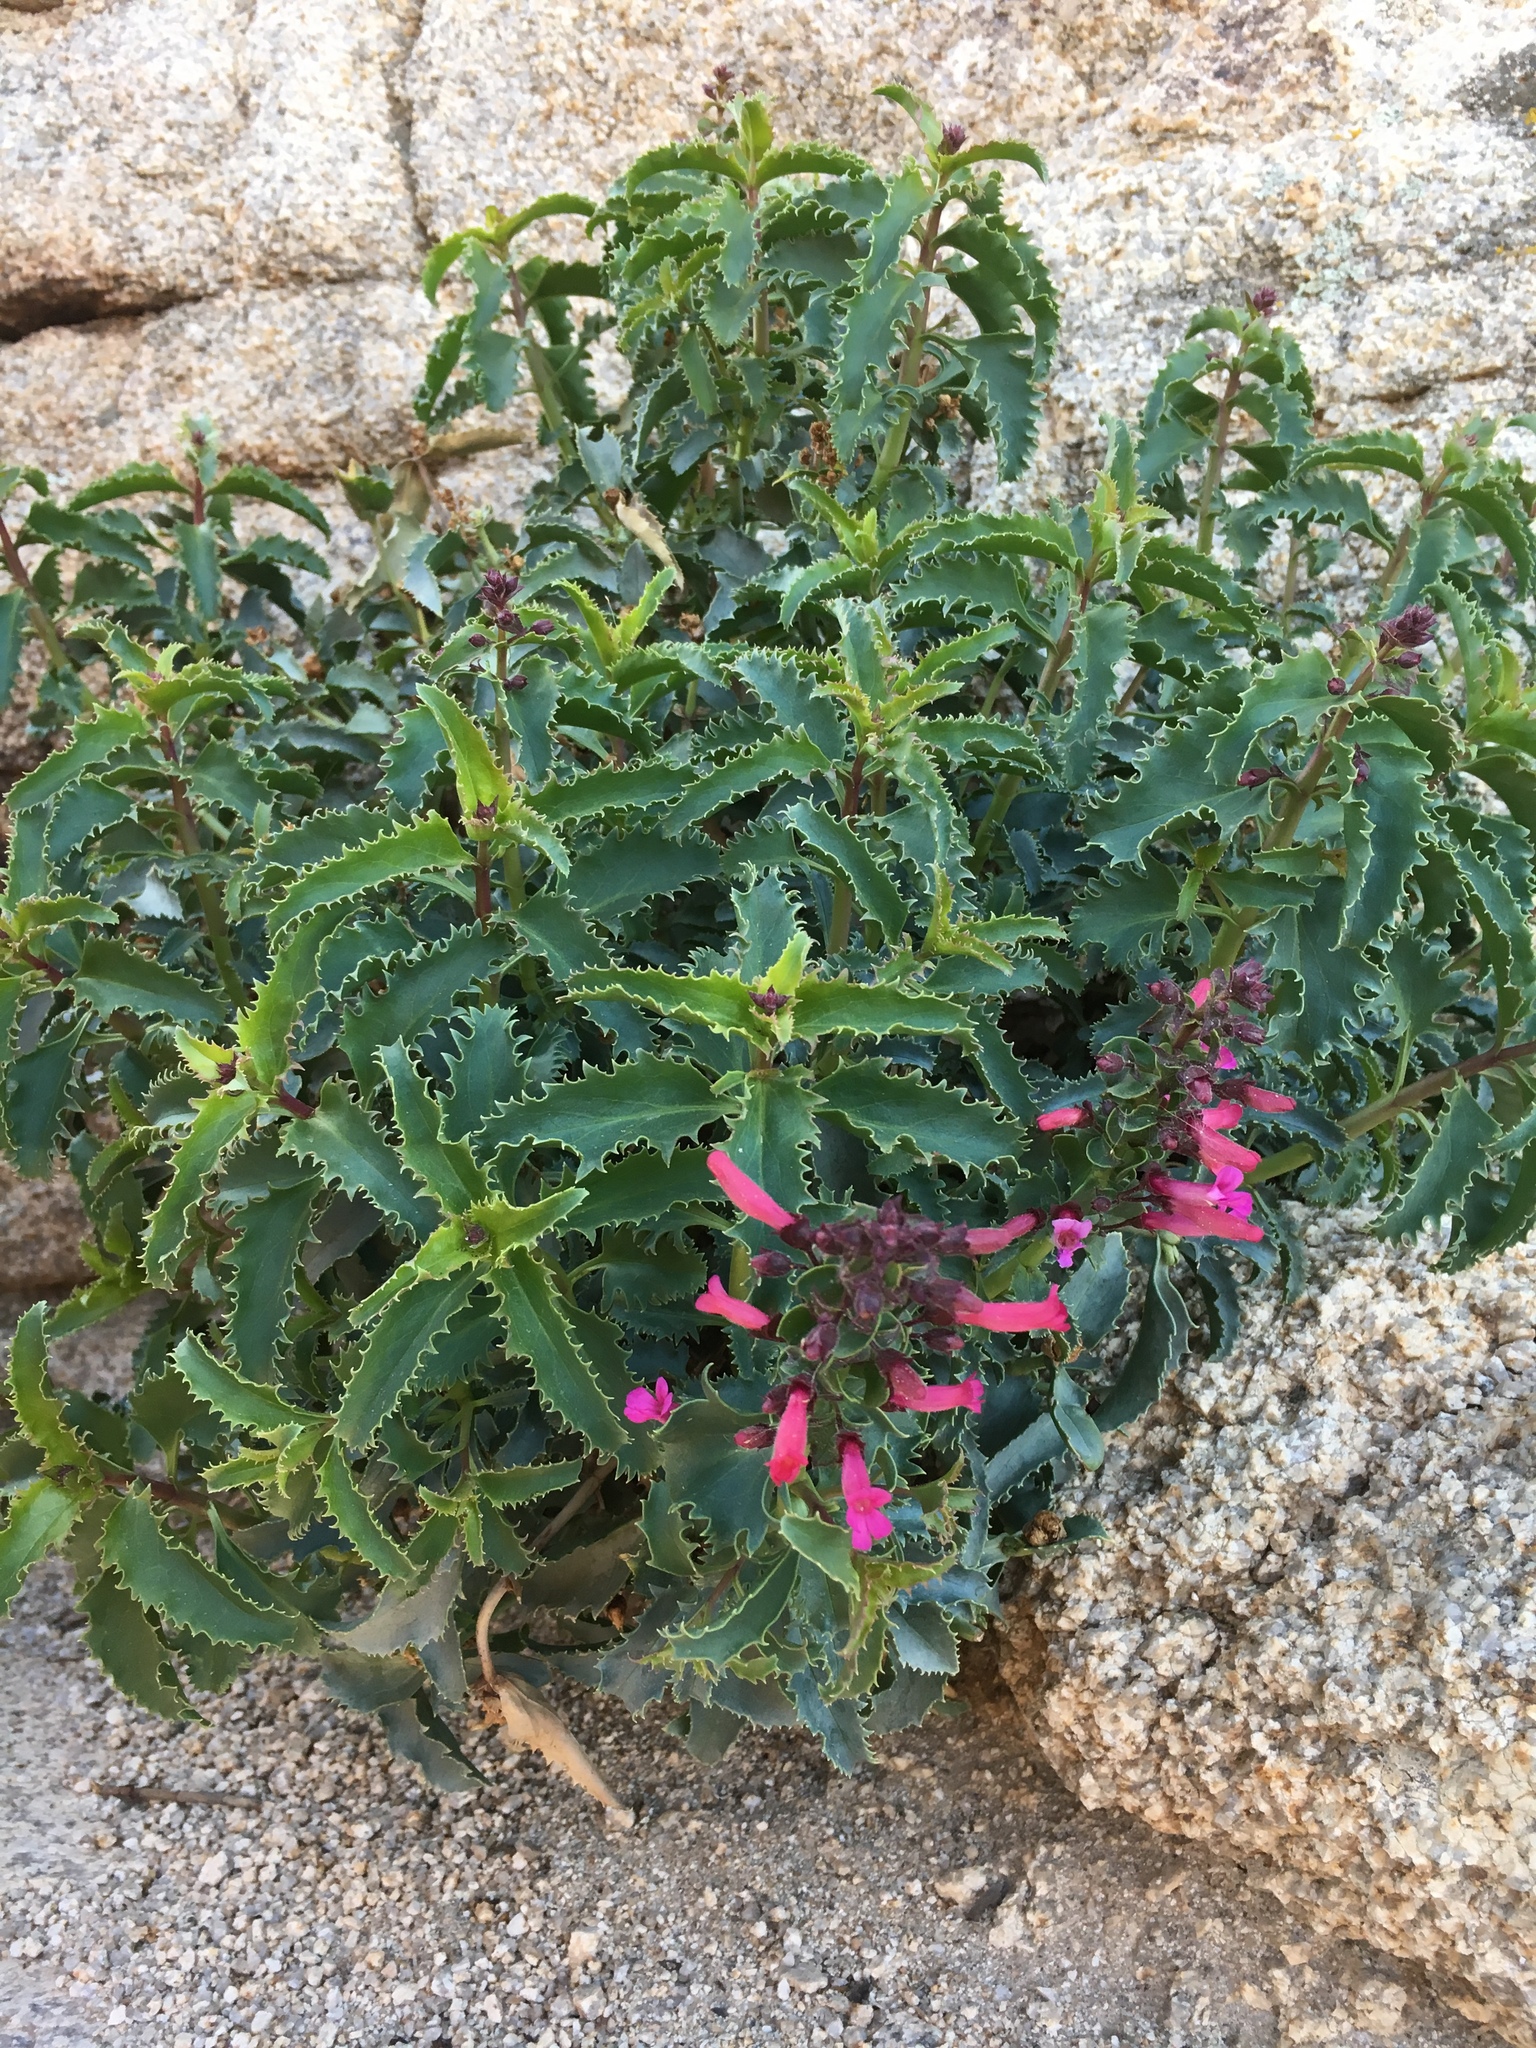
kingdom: Plantae
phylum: Tracheophyta
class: Magnoliopsida
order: Lamiales
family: Plantaginaceae
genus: Penstemon
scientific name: Penstemon clevelandii
